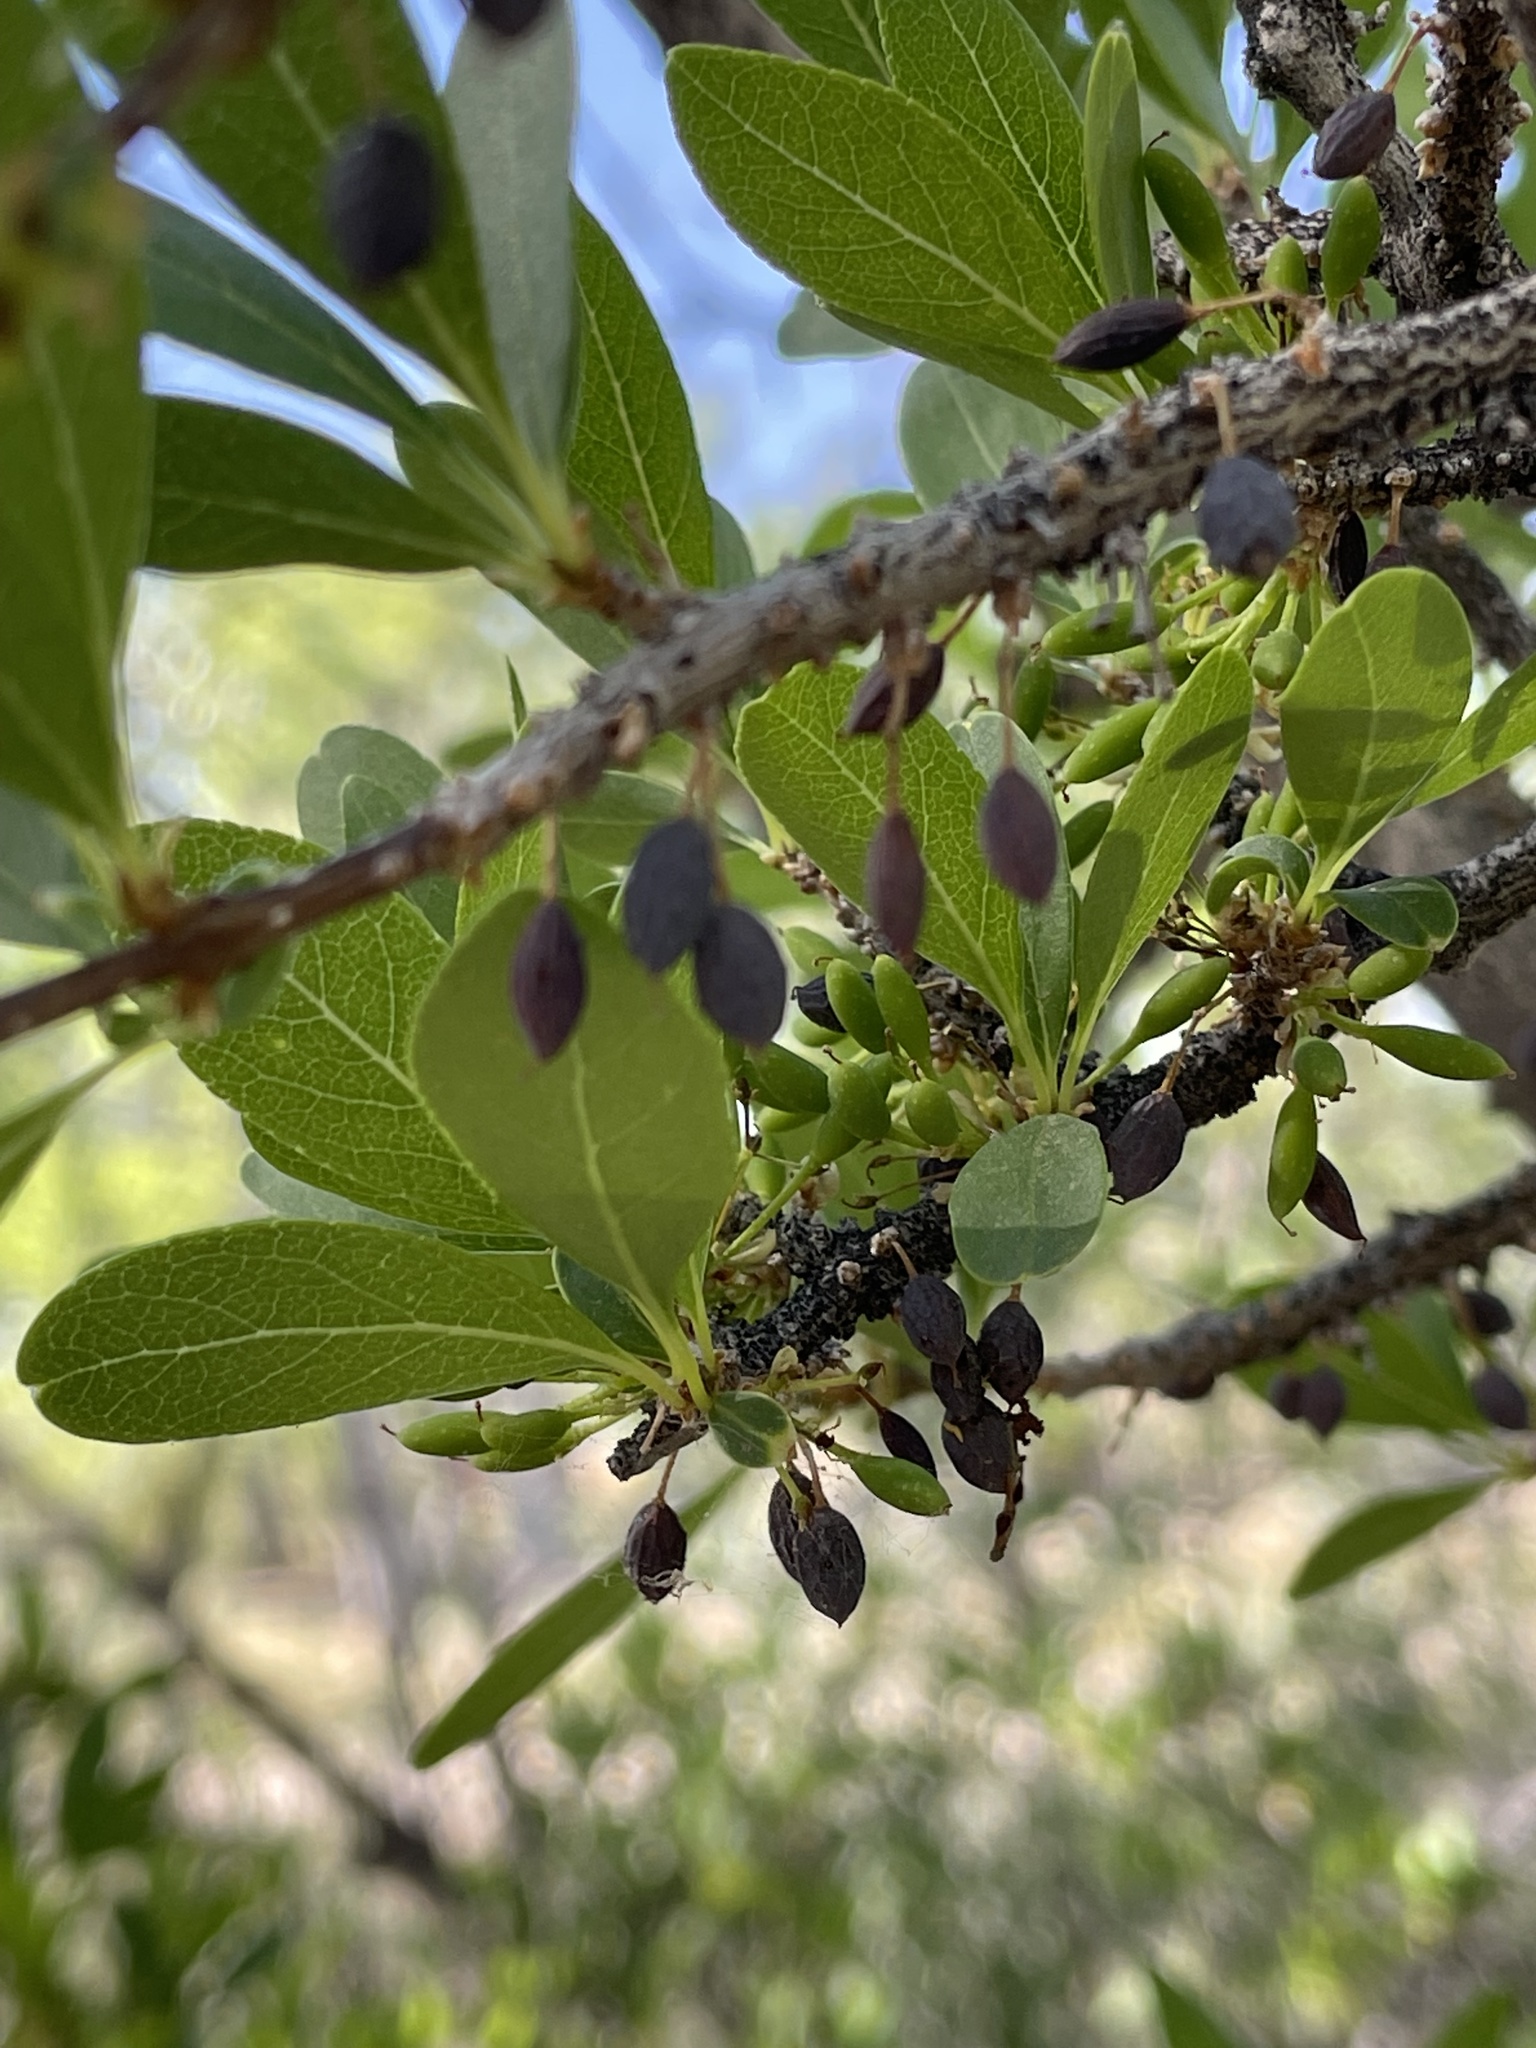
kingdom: Plantae
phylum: Tracheophyta
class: Magnoliopsida
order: Lamiales
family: Oleaceae
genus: Forestiera
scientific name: Forestiera pubescens
